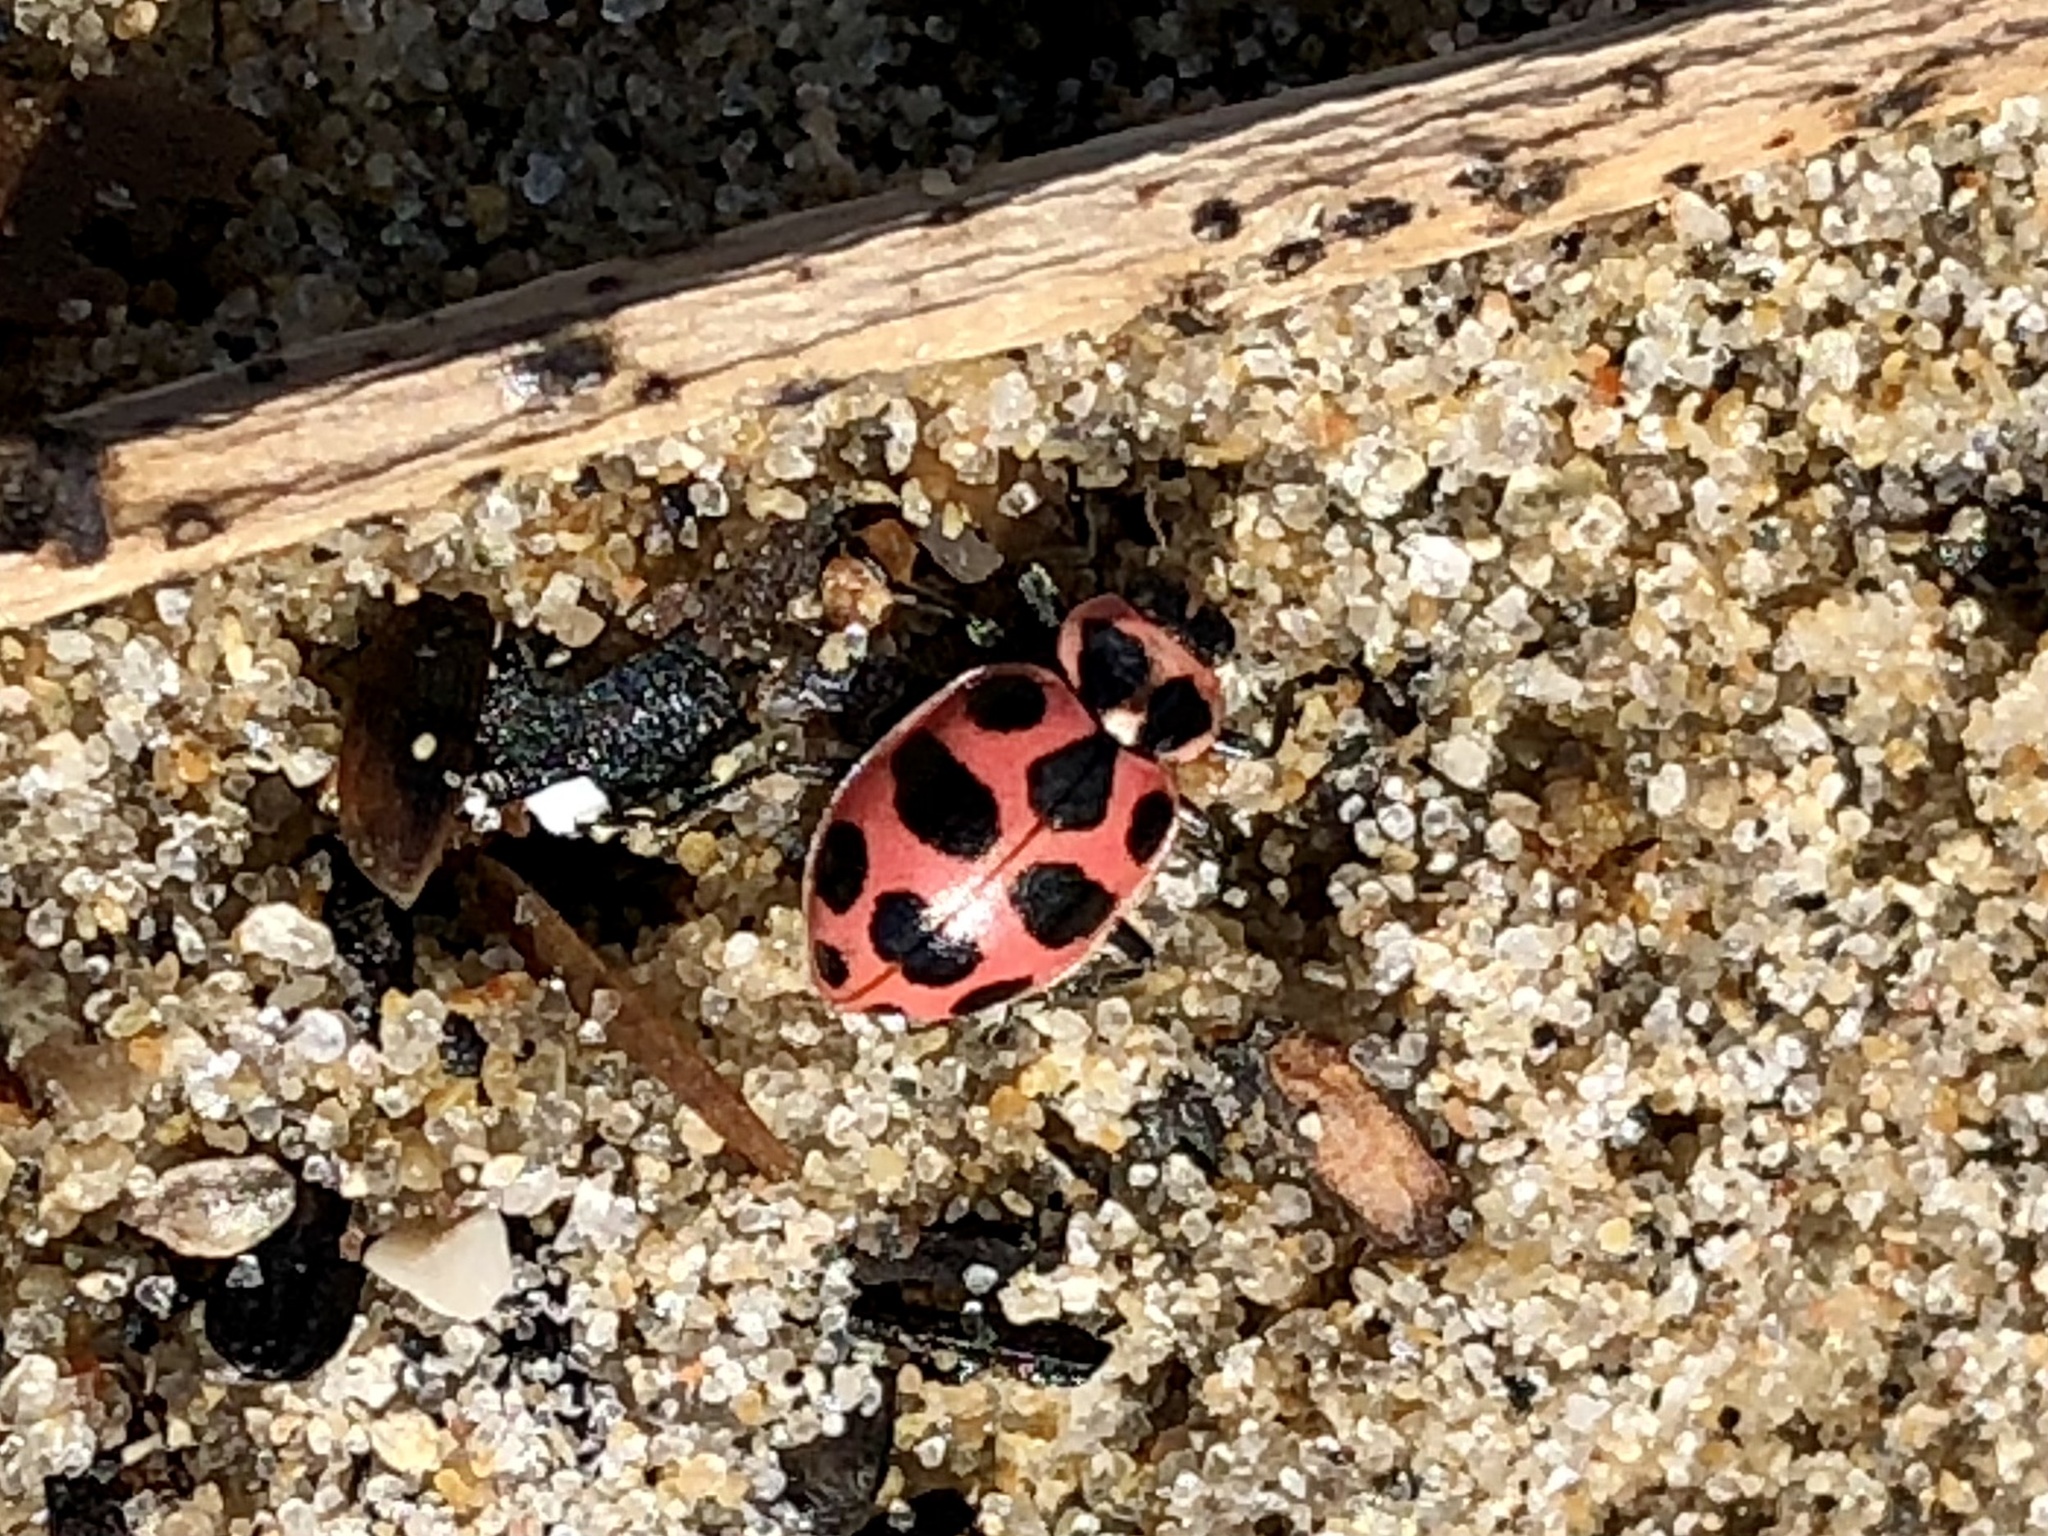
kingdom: Animalia
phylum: Arthropoda
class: Insecta
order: Coleoptera
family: Coccinellidae
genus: Coleomegilla
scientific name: Coleomegilla maculata
